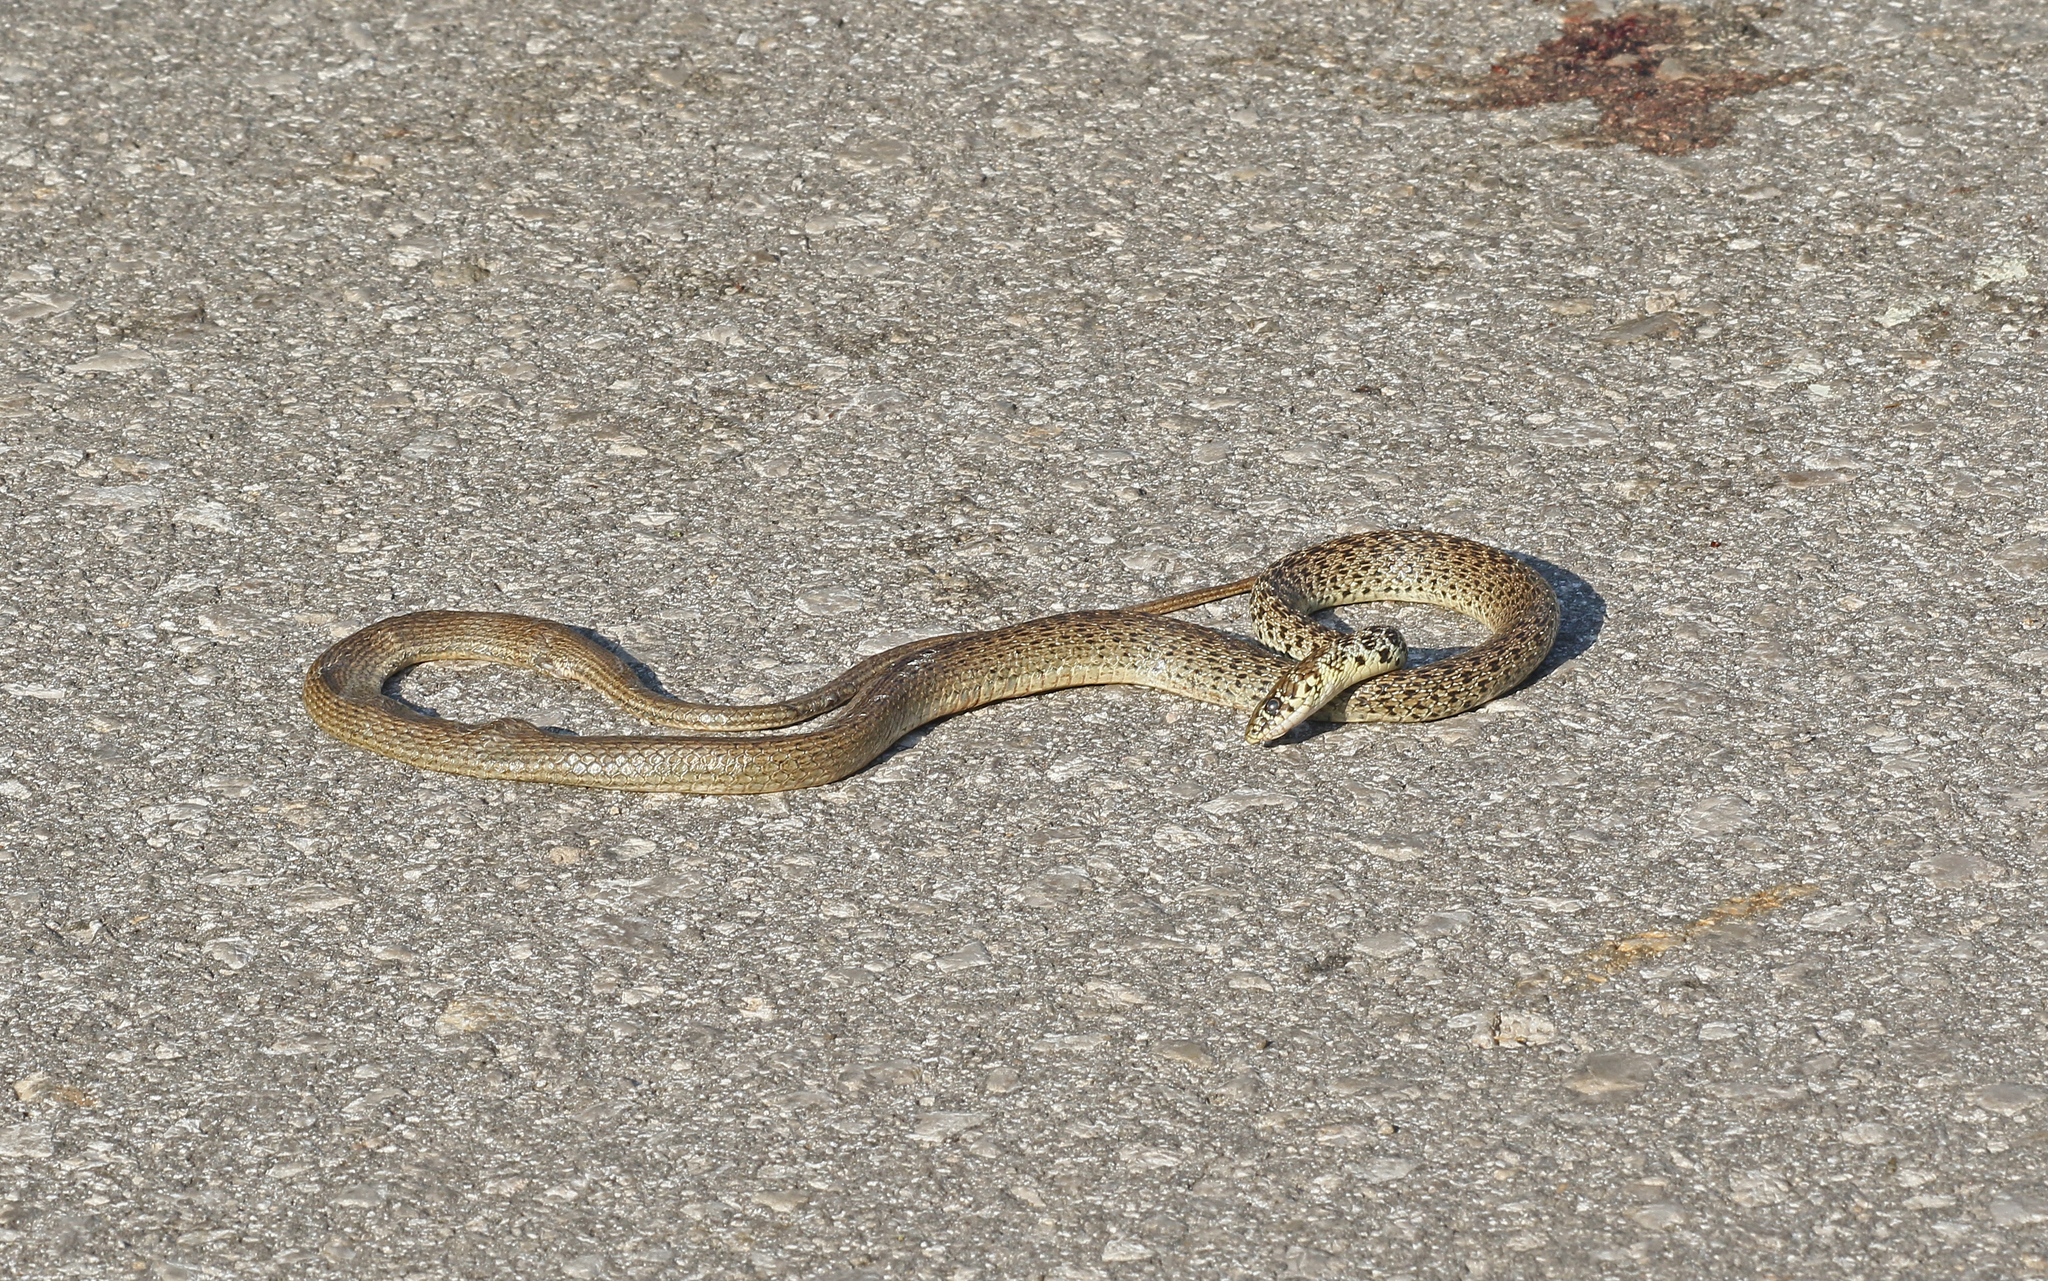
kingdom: Animalia
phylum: Chordata
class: Squamata
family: Colubridae
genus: Hierophis
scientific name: Hierophis gemonensis
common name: Balkan whip snake
